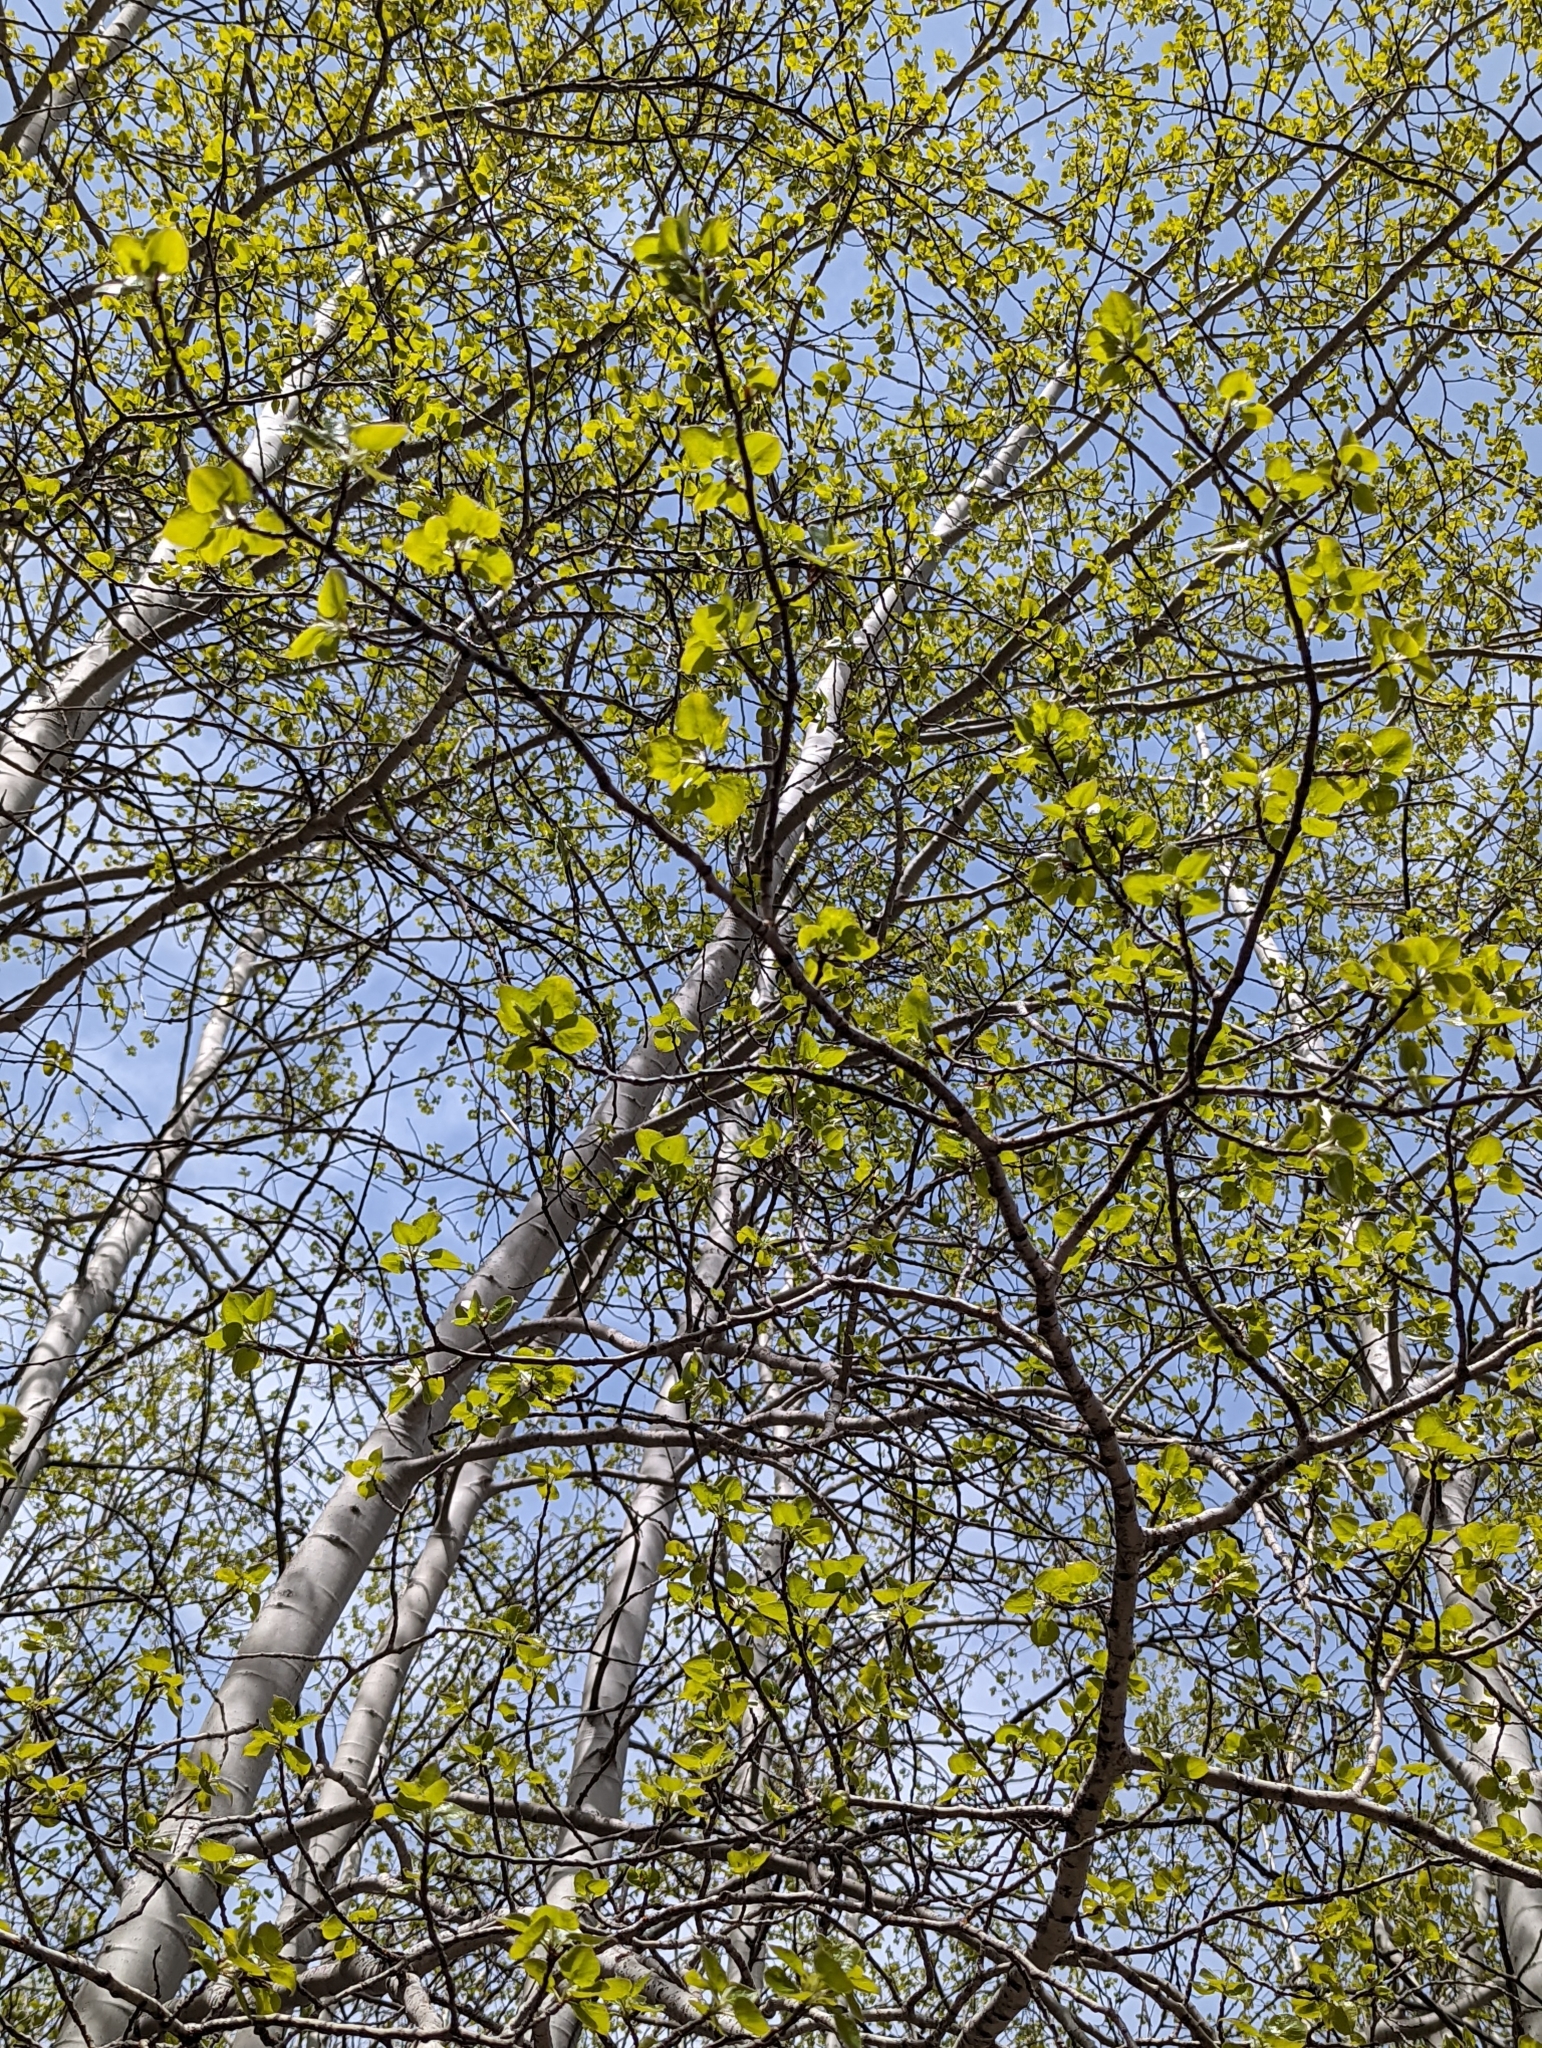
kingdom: Plantae
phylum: Tracheophyta
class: Magnoliopsida
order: Malpighiales
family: Salicaceae
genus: Populus
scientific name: Populus tremuloides
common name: Quaking aspen
